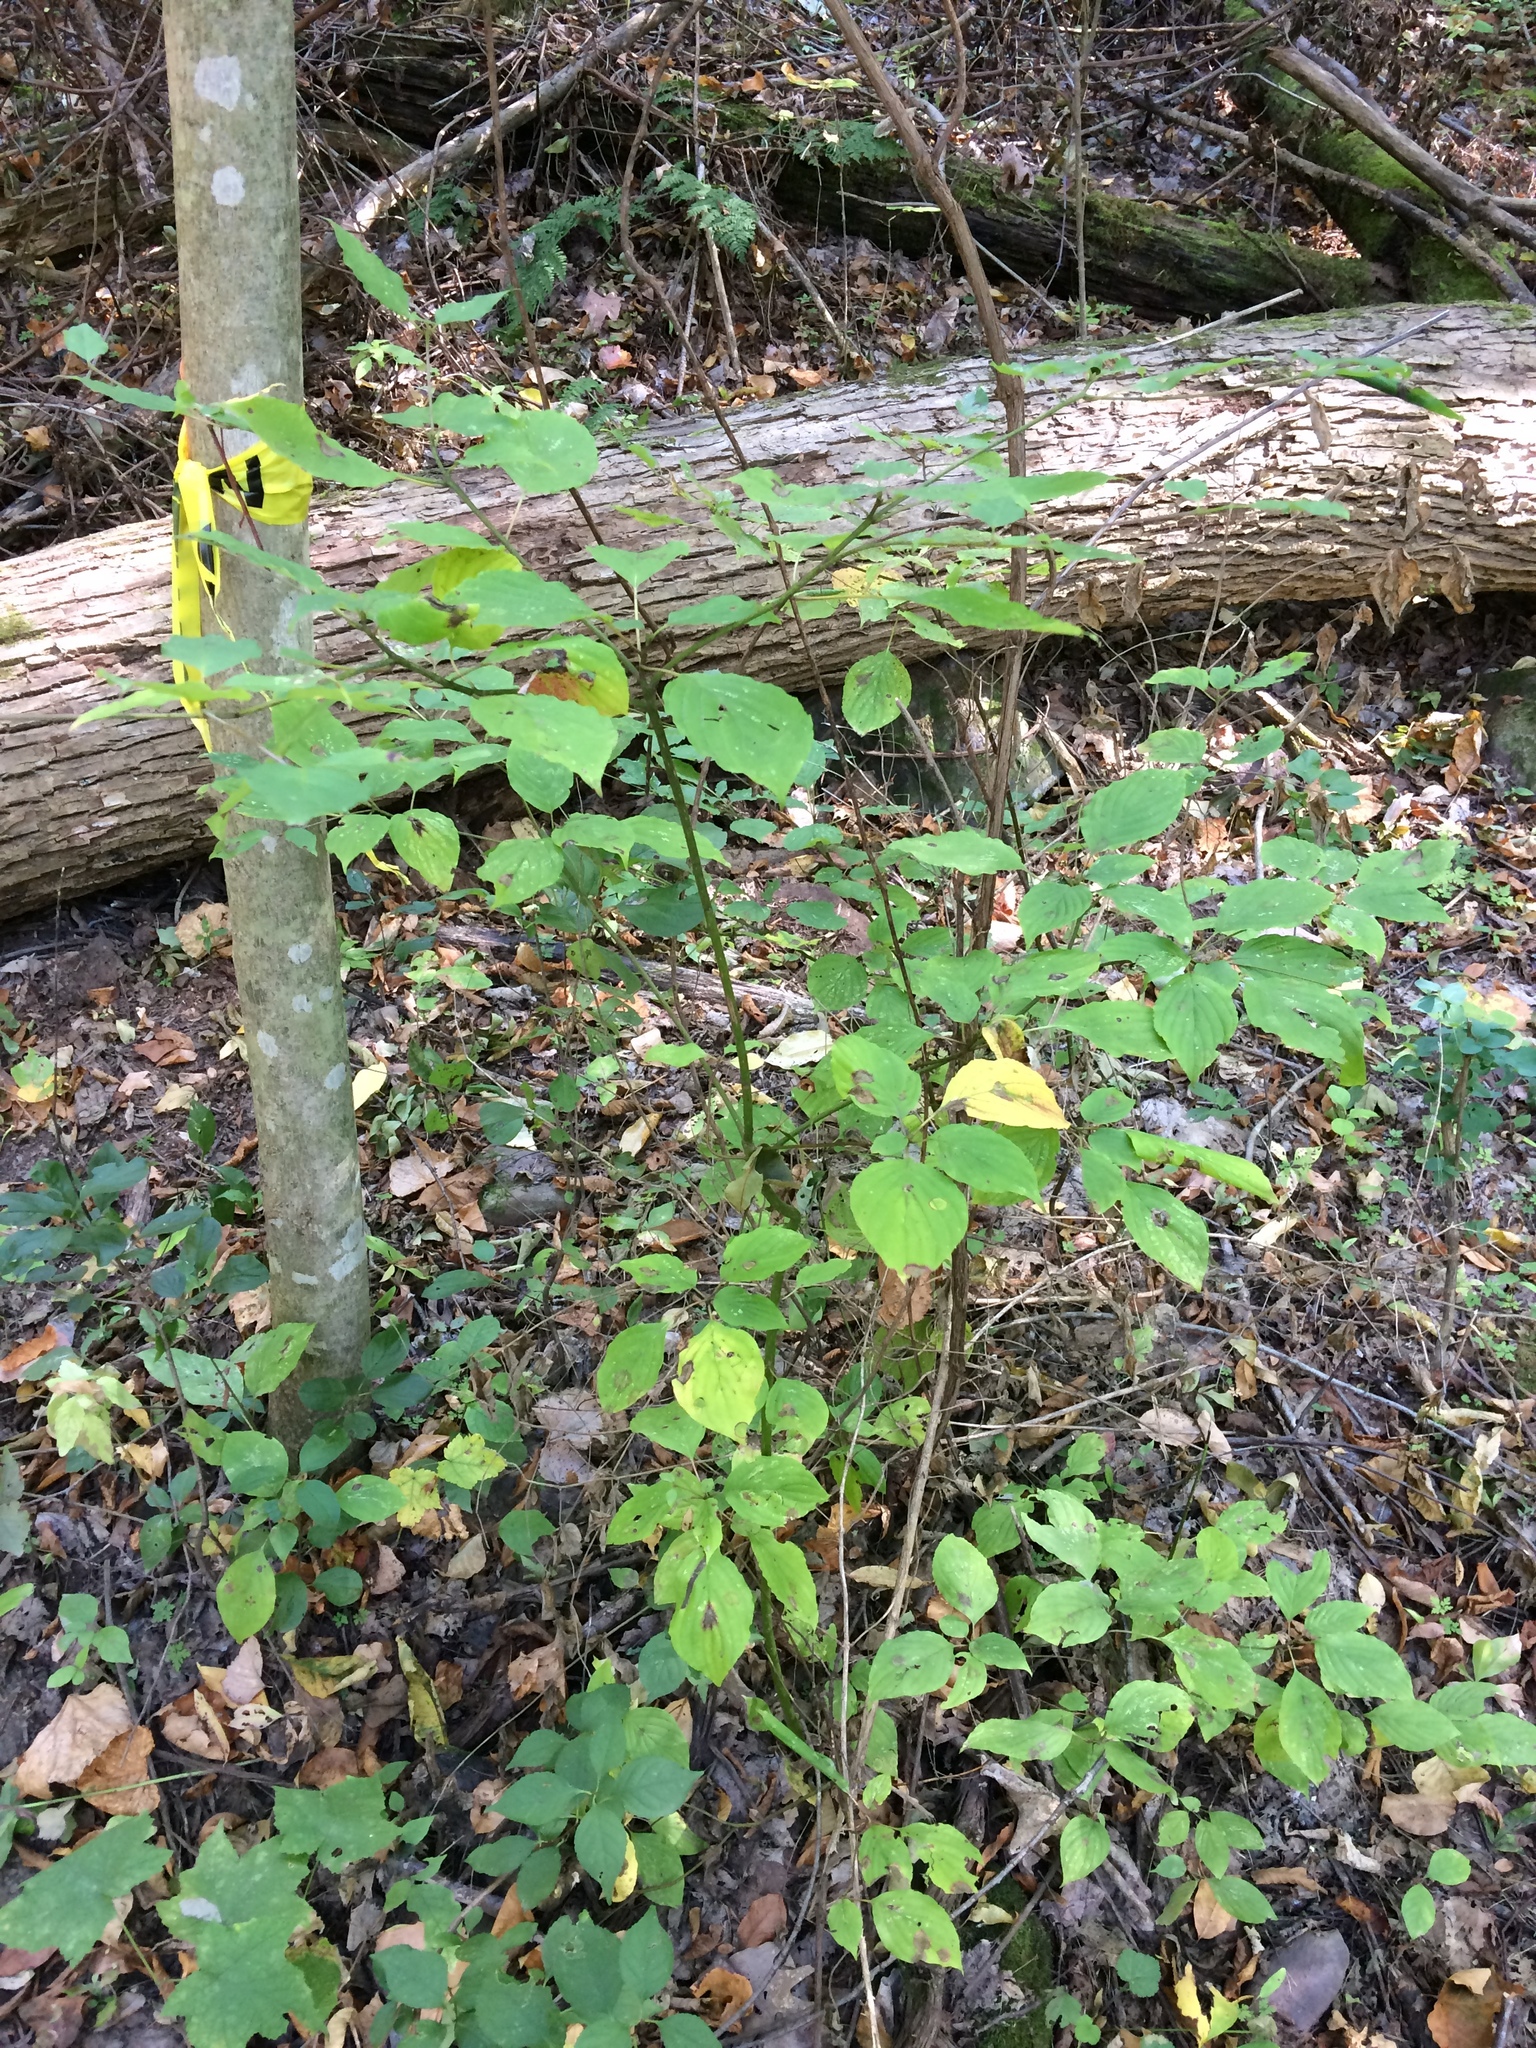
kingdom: Plantae
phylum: Tracheophyta
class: Magnoliopsida
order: Cornales
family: Cornaceae
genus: Cornus
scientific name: Cornus alternifolia
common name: Pagoda dogwood
